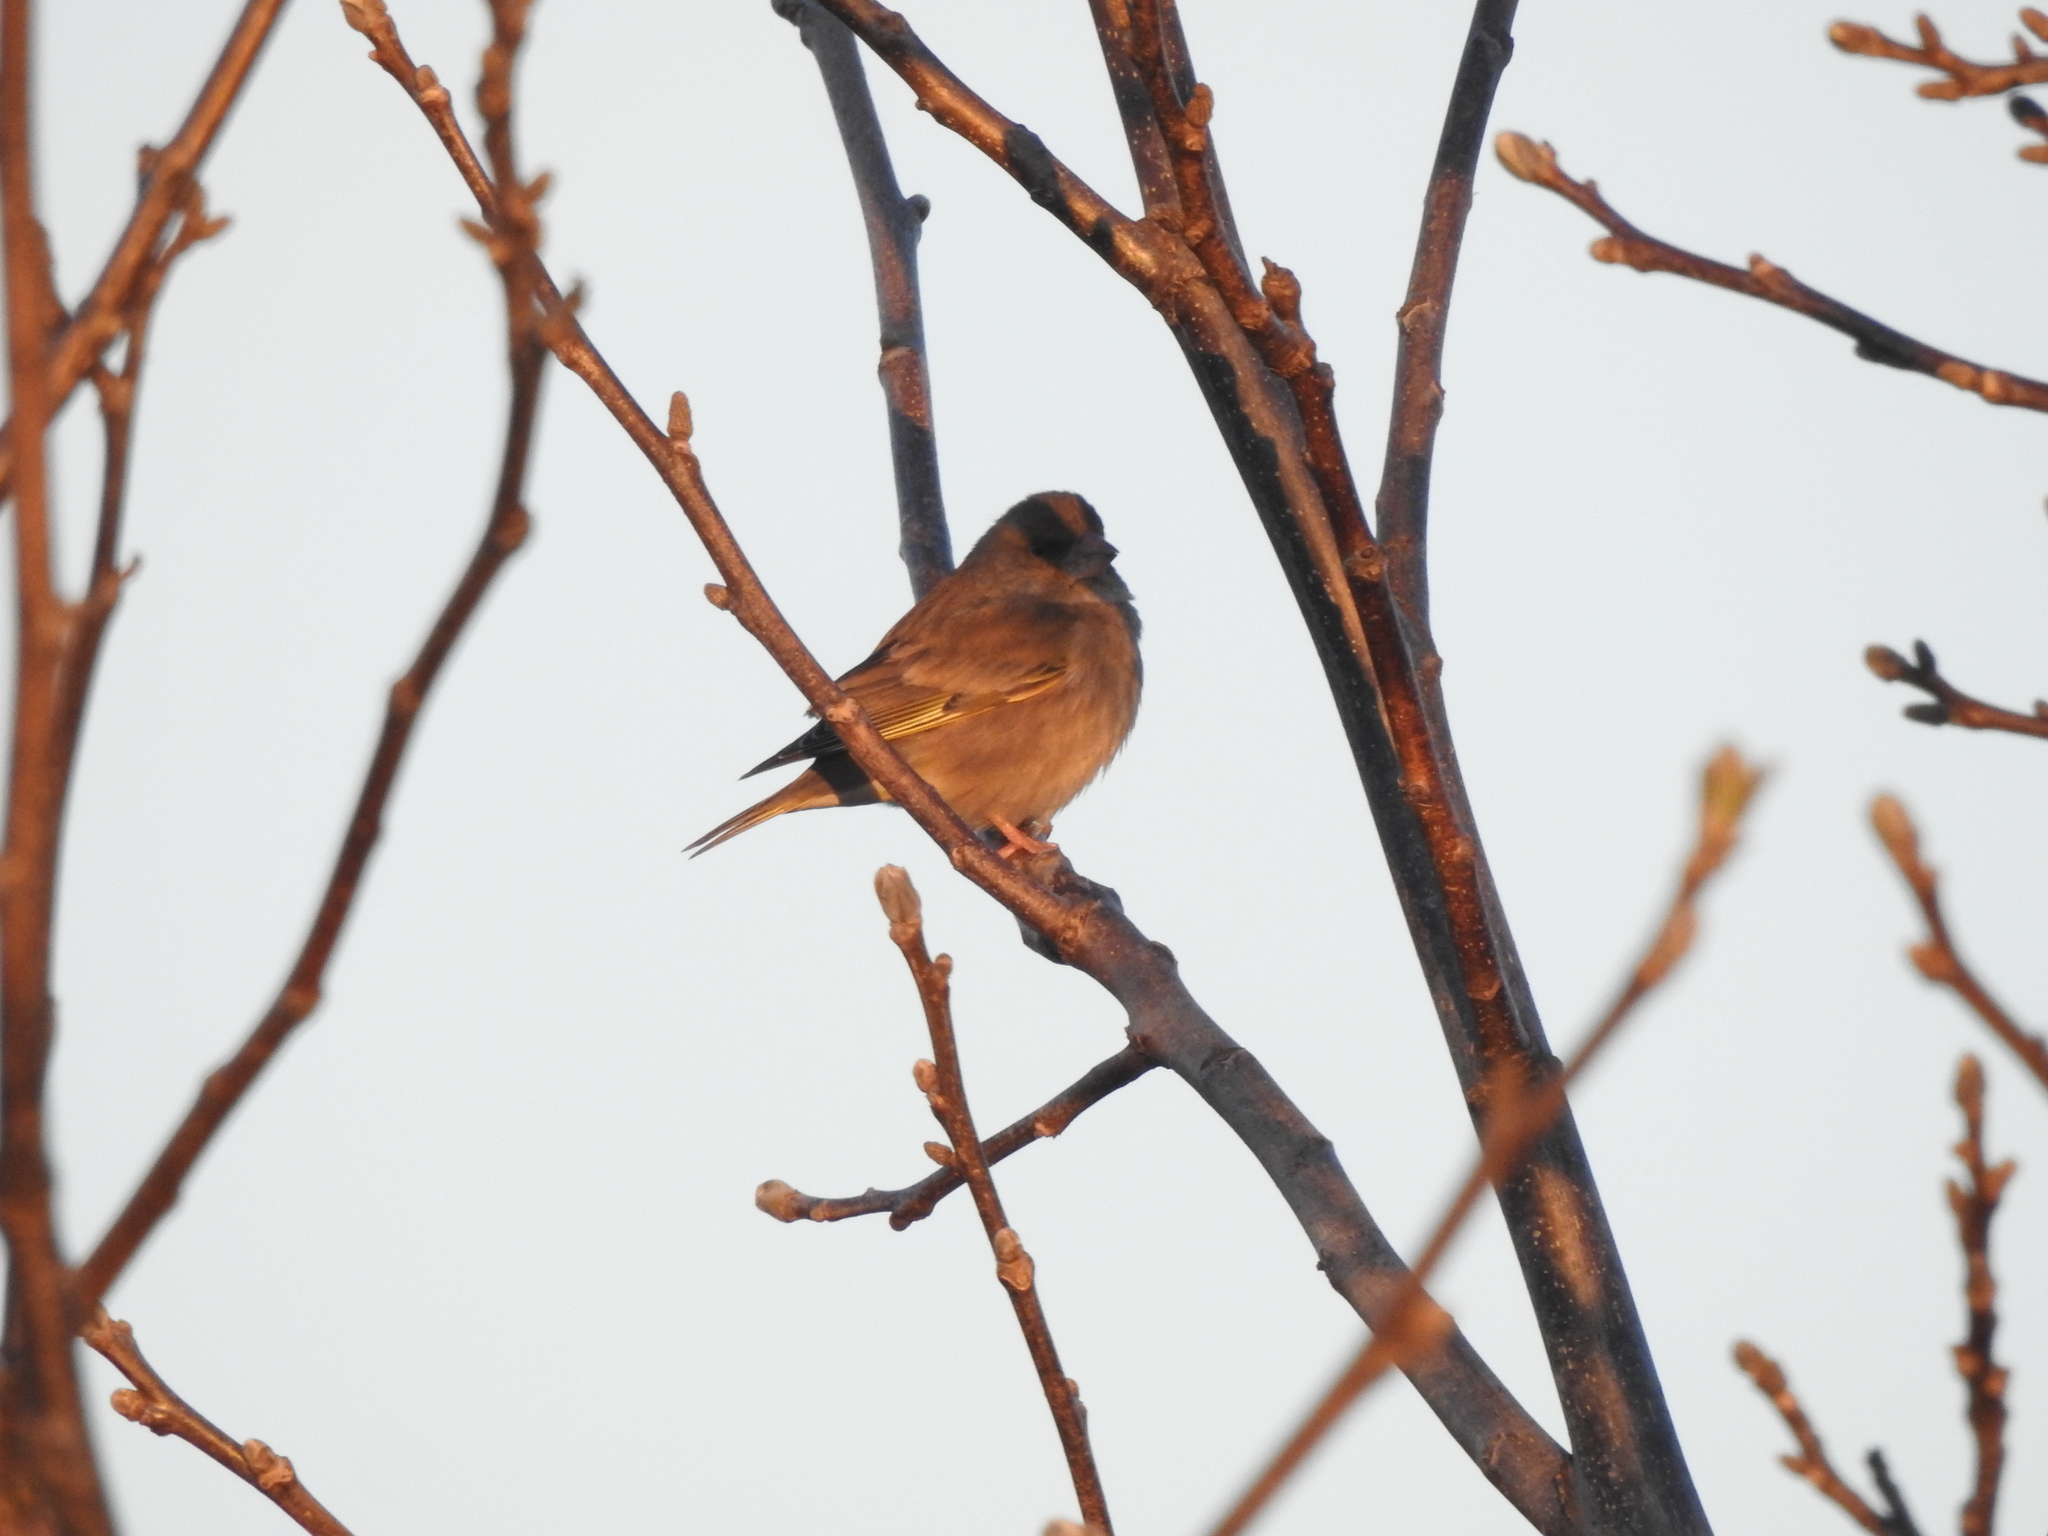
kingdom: Plantae
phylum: Tracheophyta
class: Liliopsida
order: Poales
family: Poaceae
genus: Chloris
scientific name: Chloris chloris
